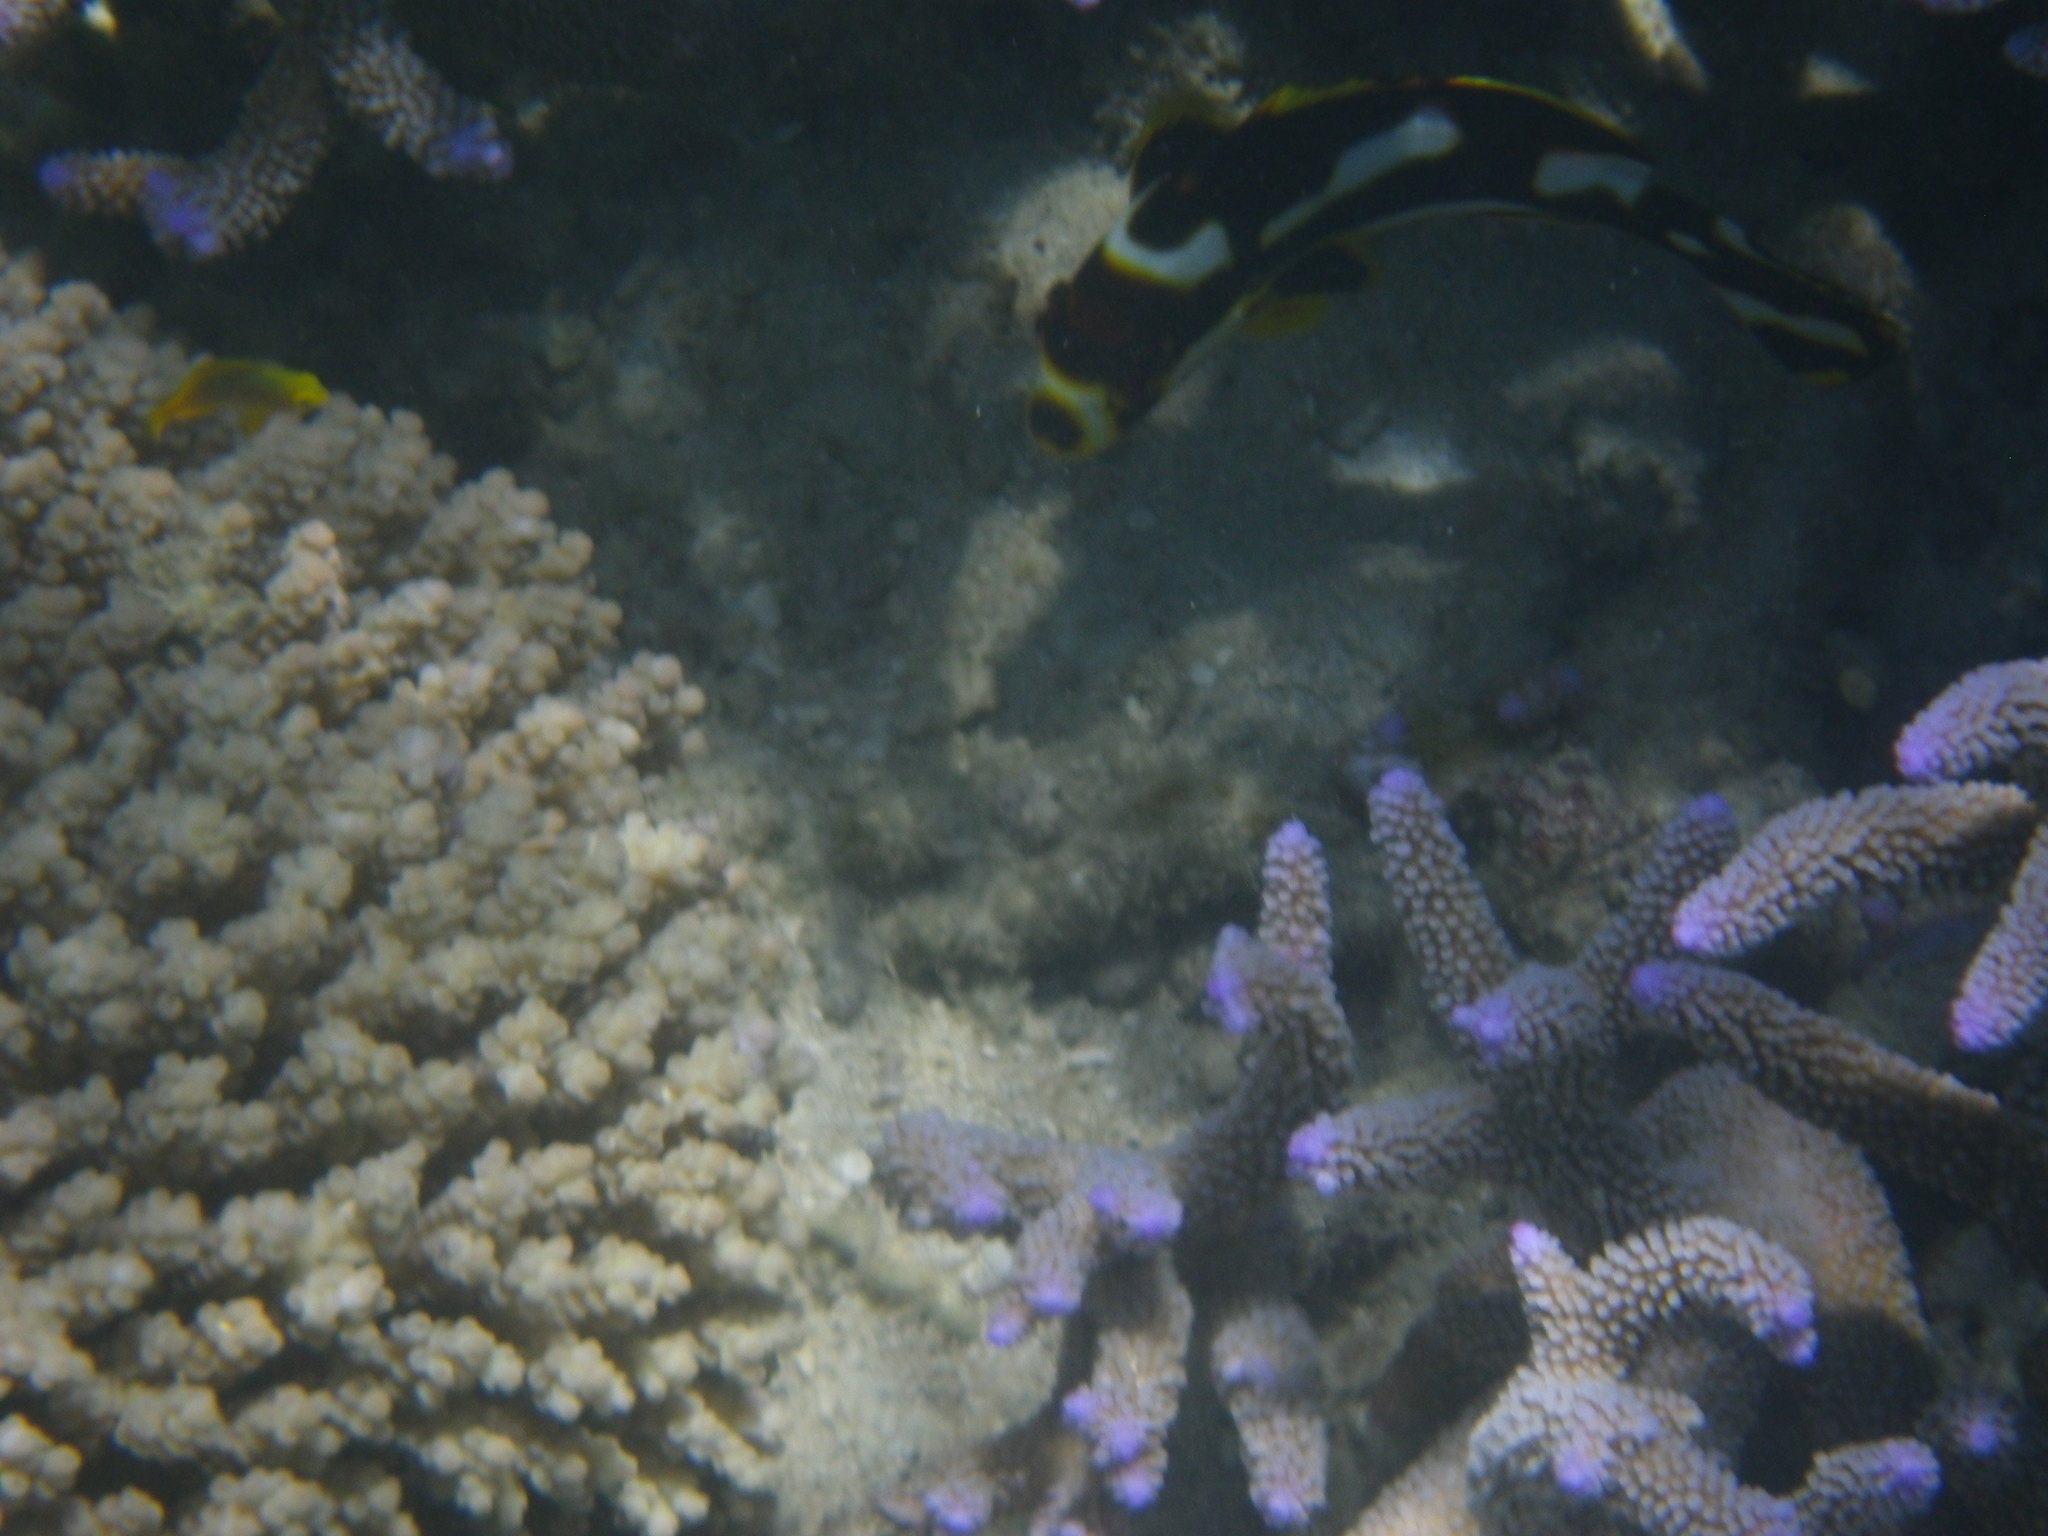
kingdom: Animalia
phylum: Chordata
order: Perciformes
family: Haemulidae
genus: Plectorhinchus
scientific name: Plectorhinchus vittatus
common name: Oriental sweetlips
